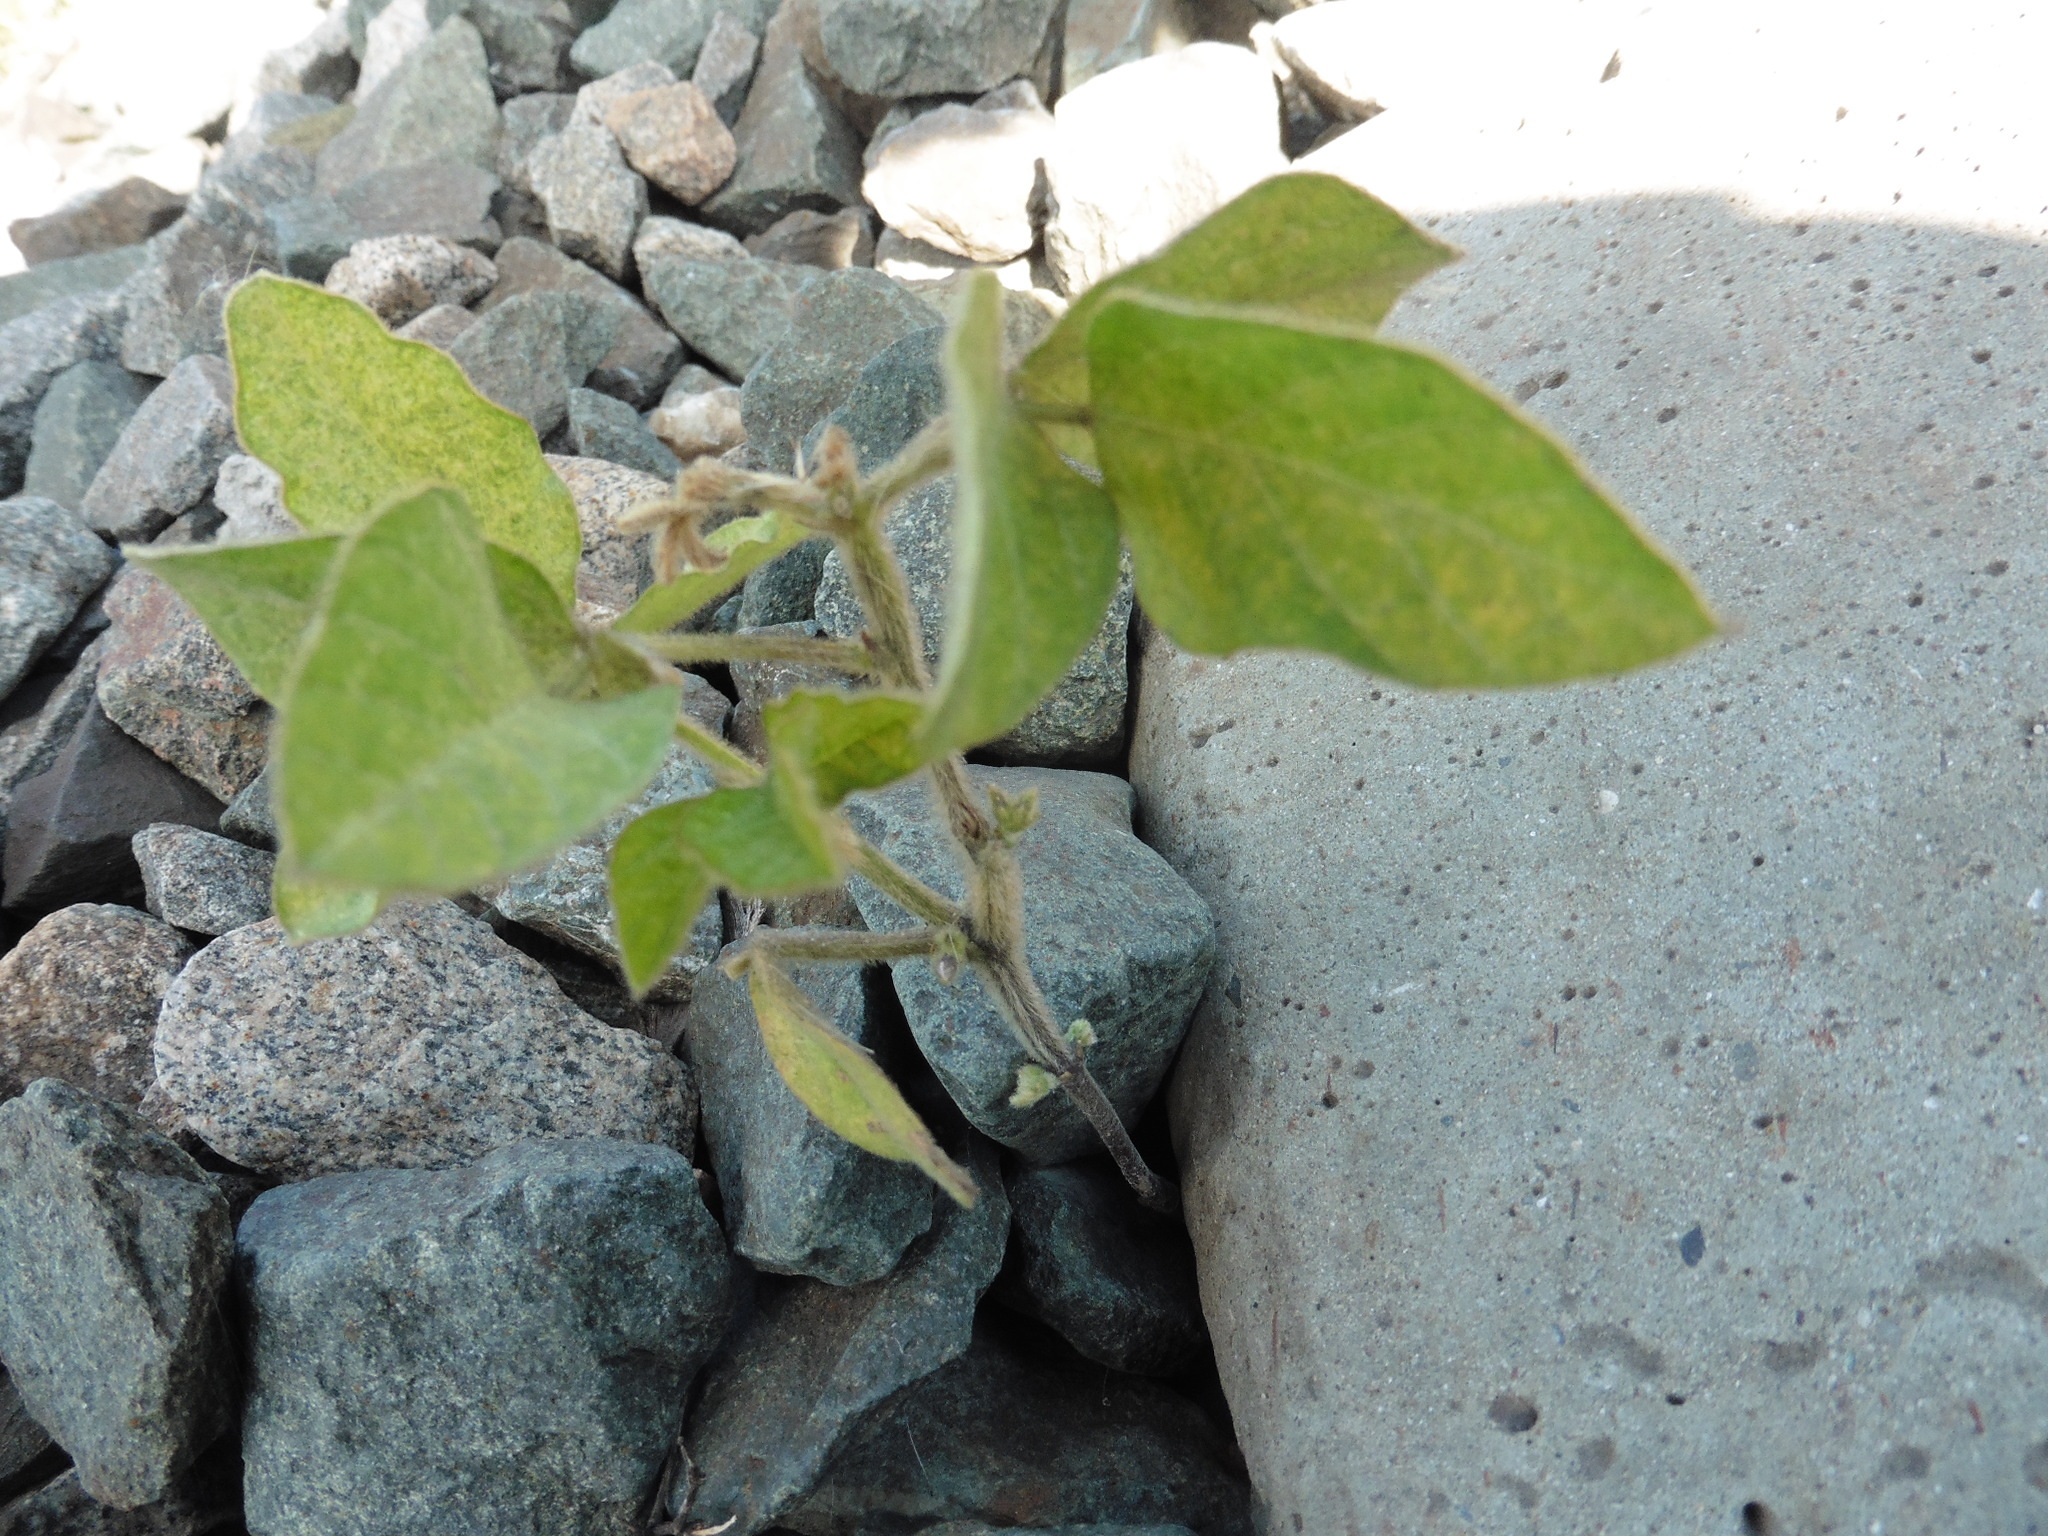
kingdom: Plantae
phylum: Tracheophyta
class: Magnoliopsida
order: Fabales
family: Fabaceae
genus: Glycine
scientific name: Glycine max
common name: Soya-bean
